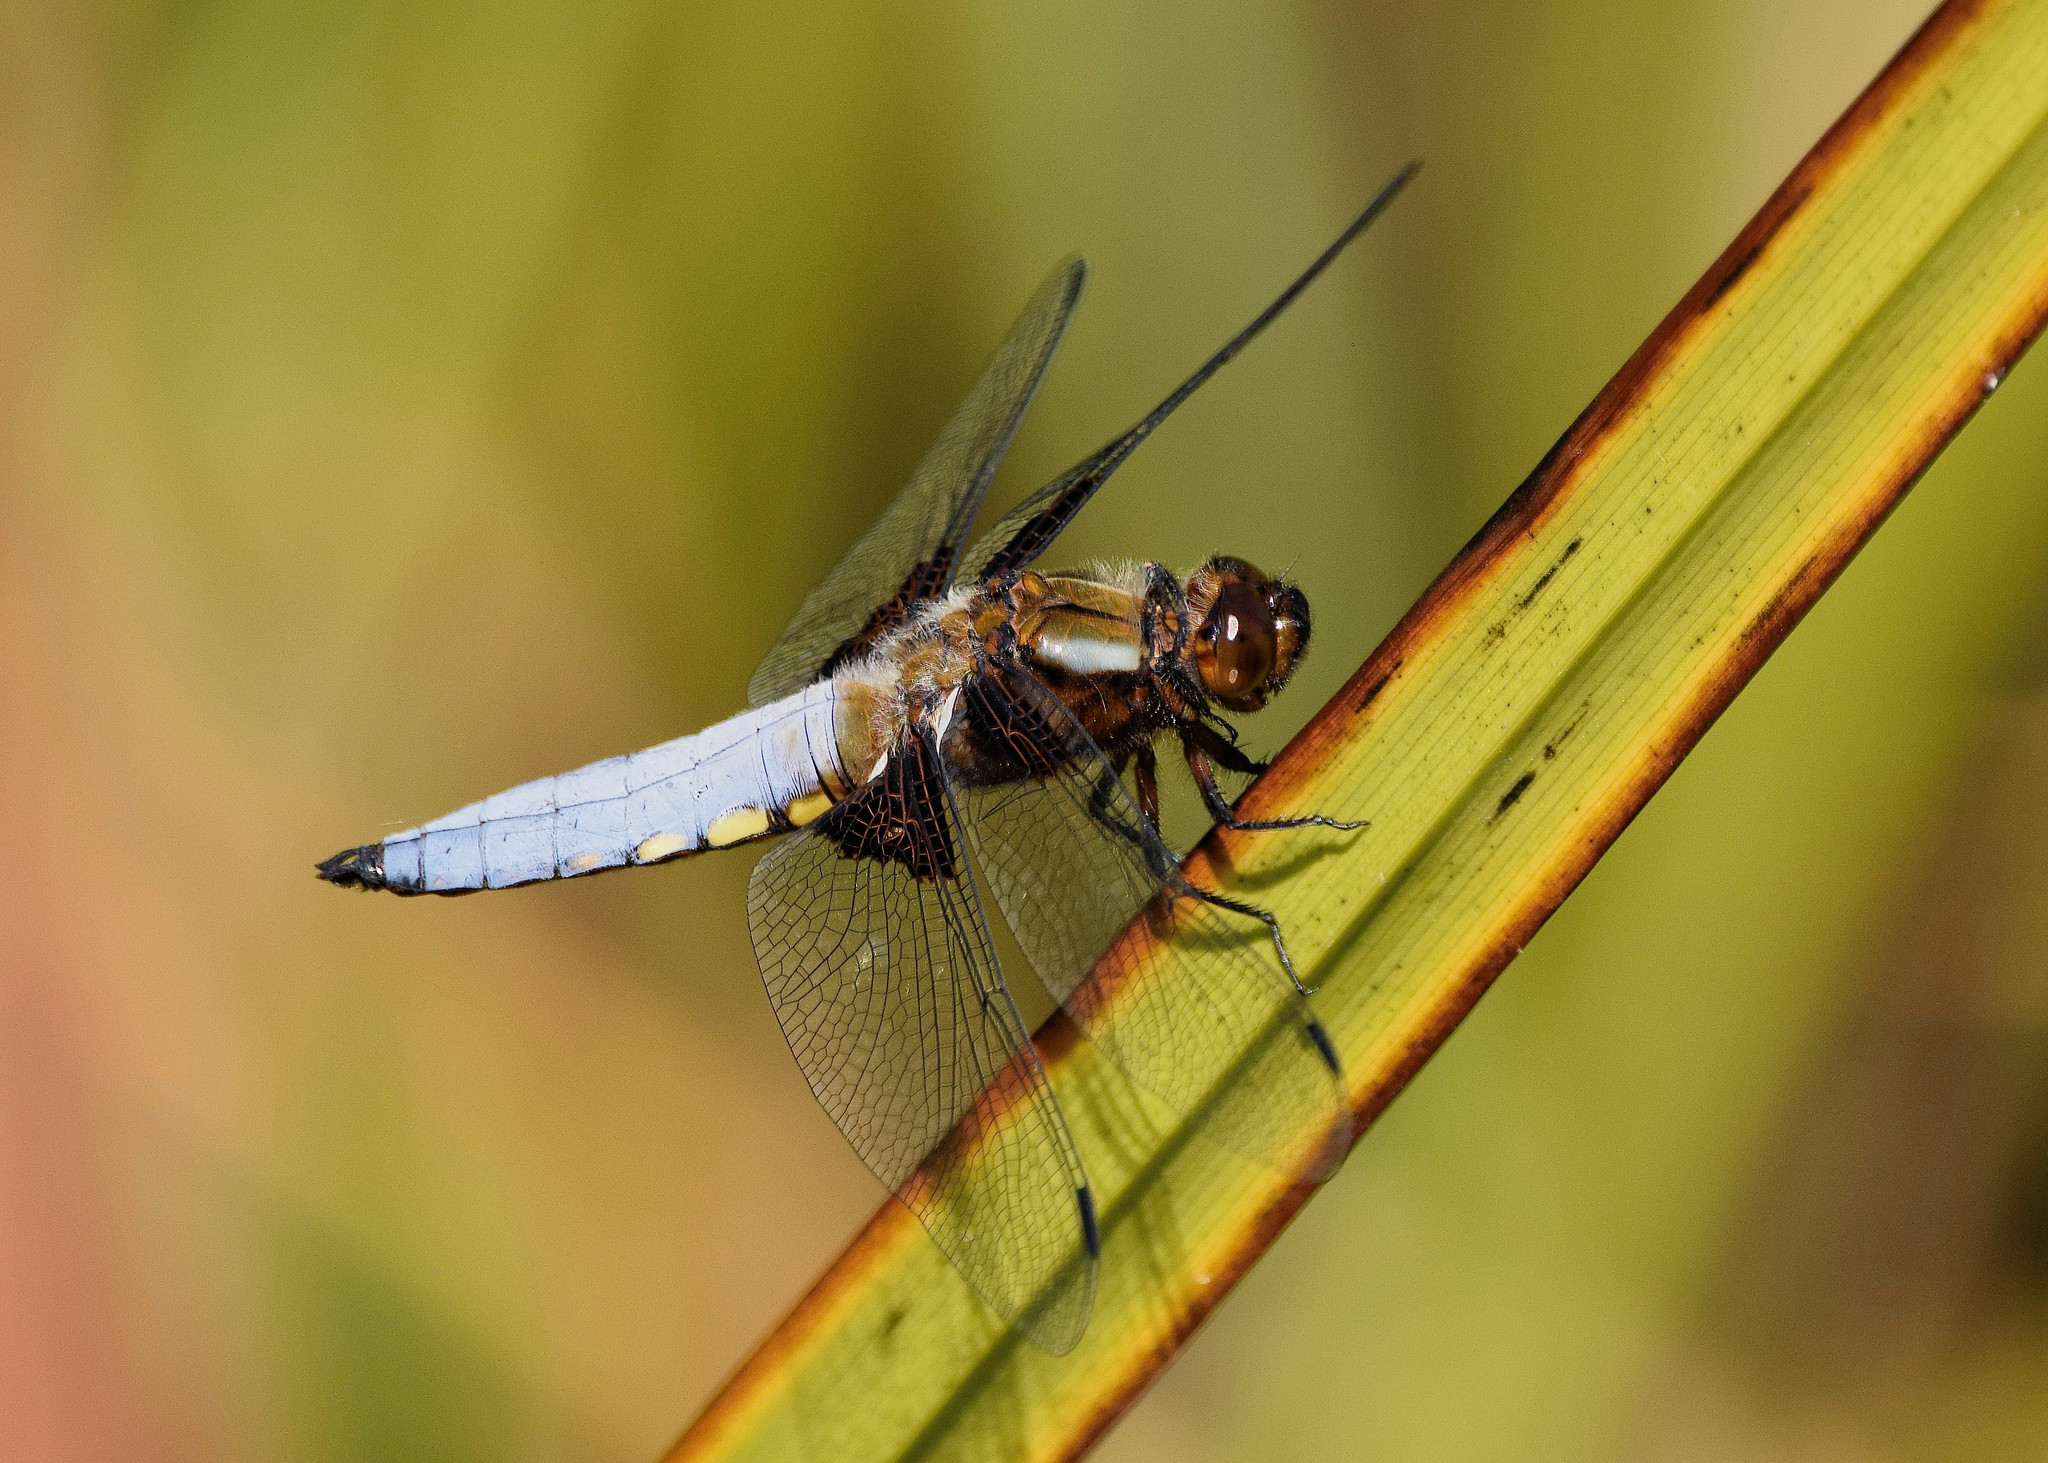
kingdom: Animalia
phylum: Arthropoda
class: Insecta
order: Odonata
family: Libellulidae
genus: Libellula
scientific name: Libellula depressa
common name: Broad-bodied chaser
